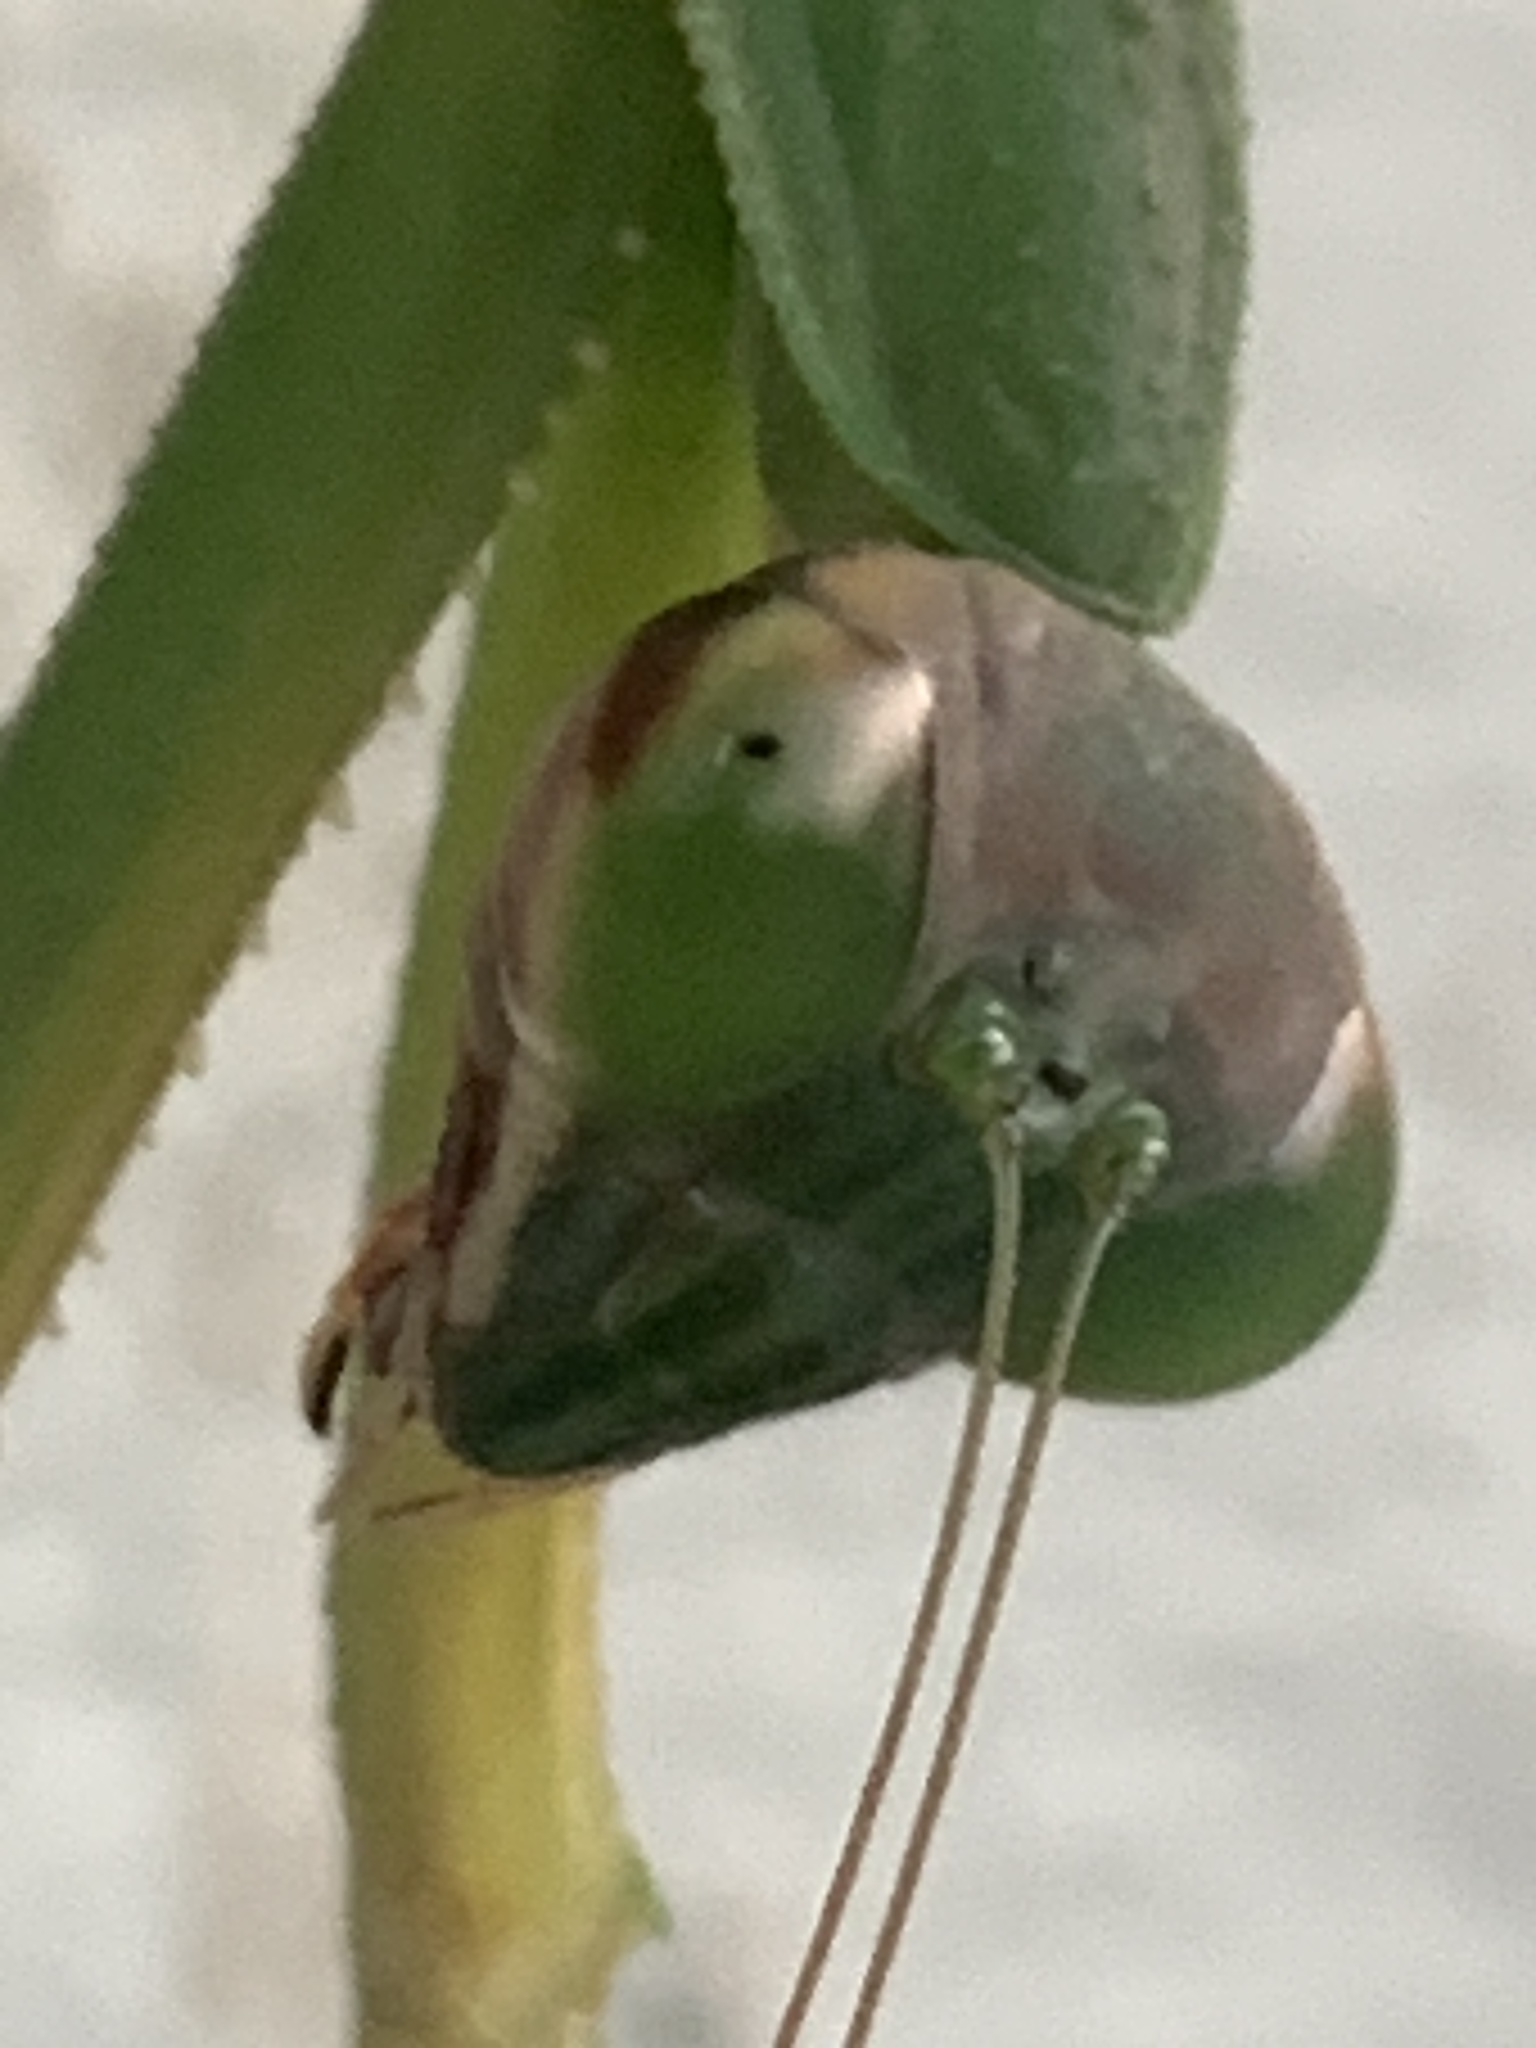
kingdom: Animalia
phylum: Arthropoda
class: Insecta
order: Mantodea
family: Mantidae
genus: Tenodera
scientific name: Tenodera sinensis
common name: Chinese mantis
